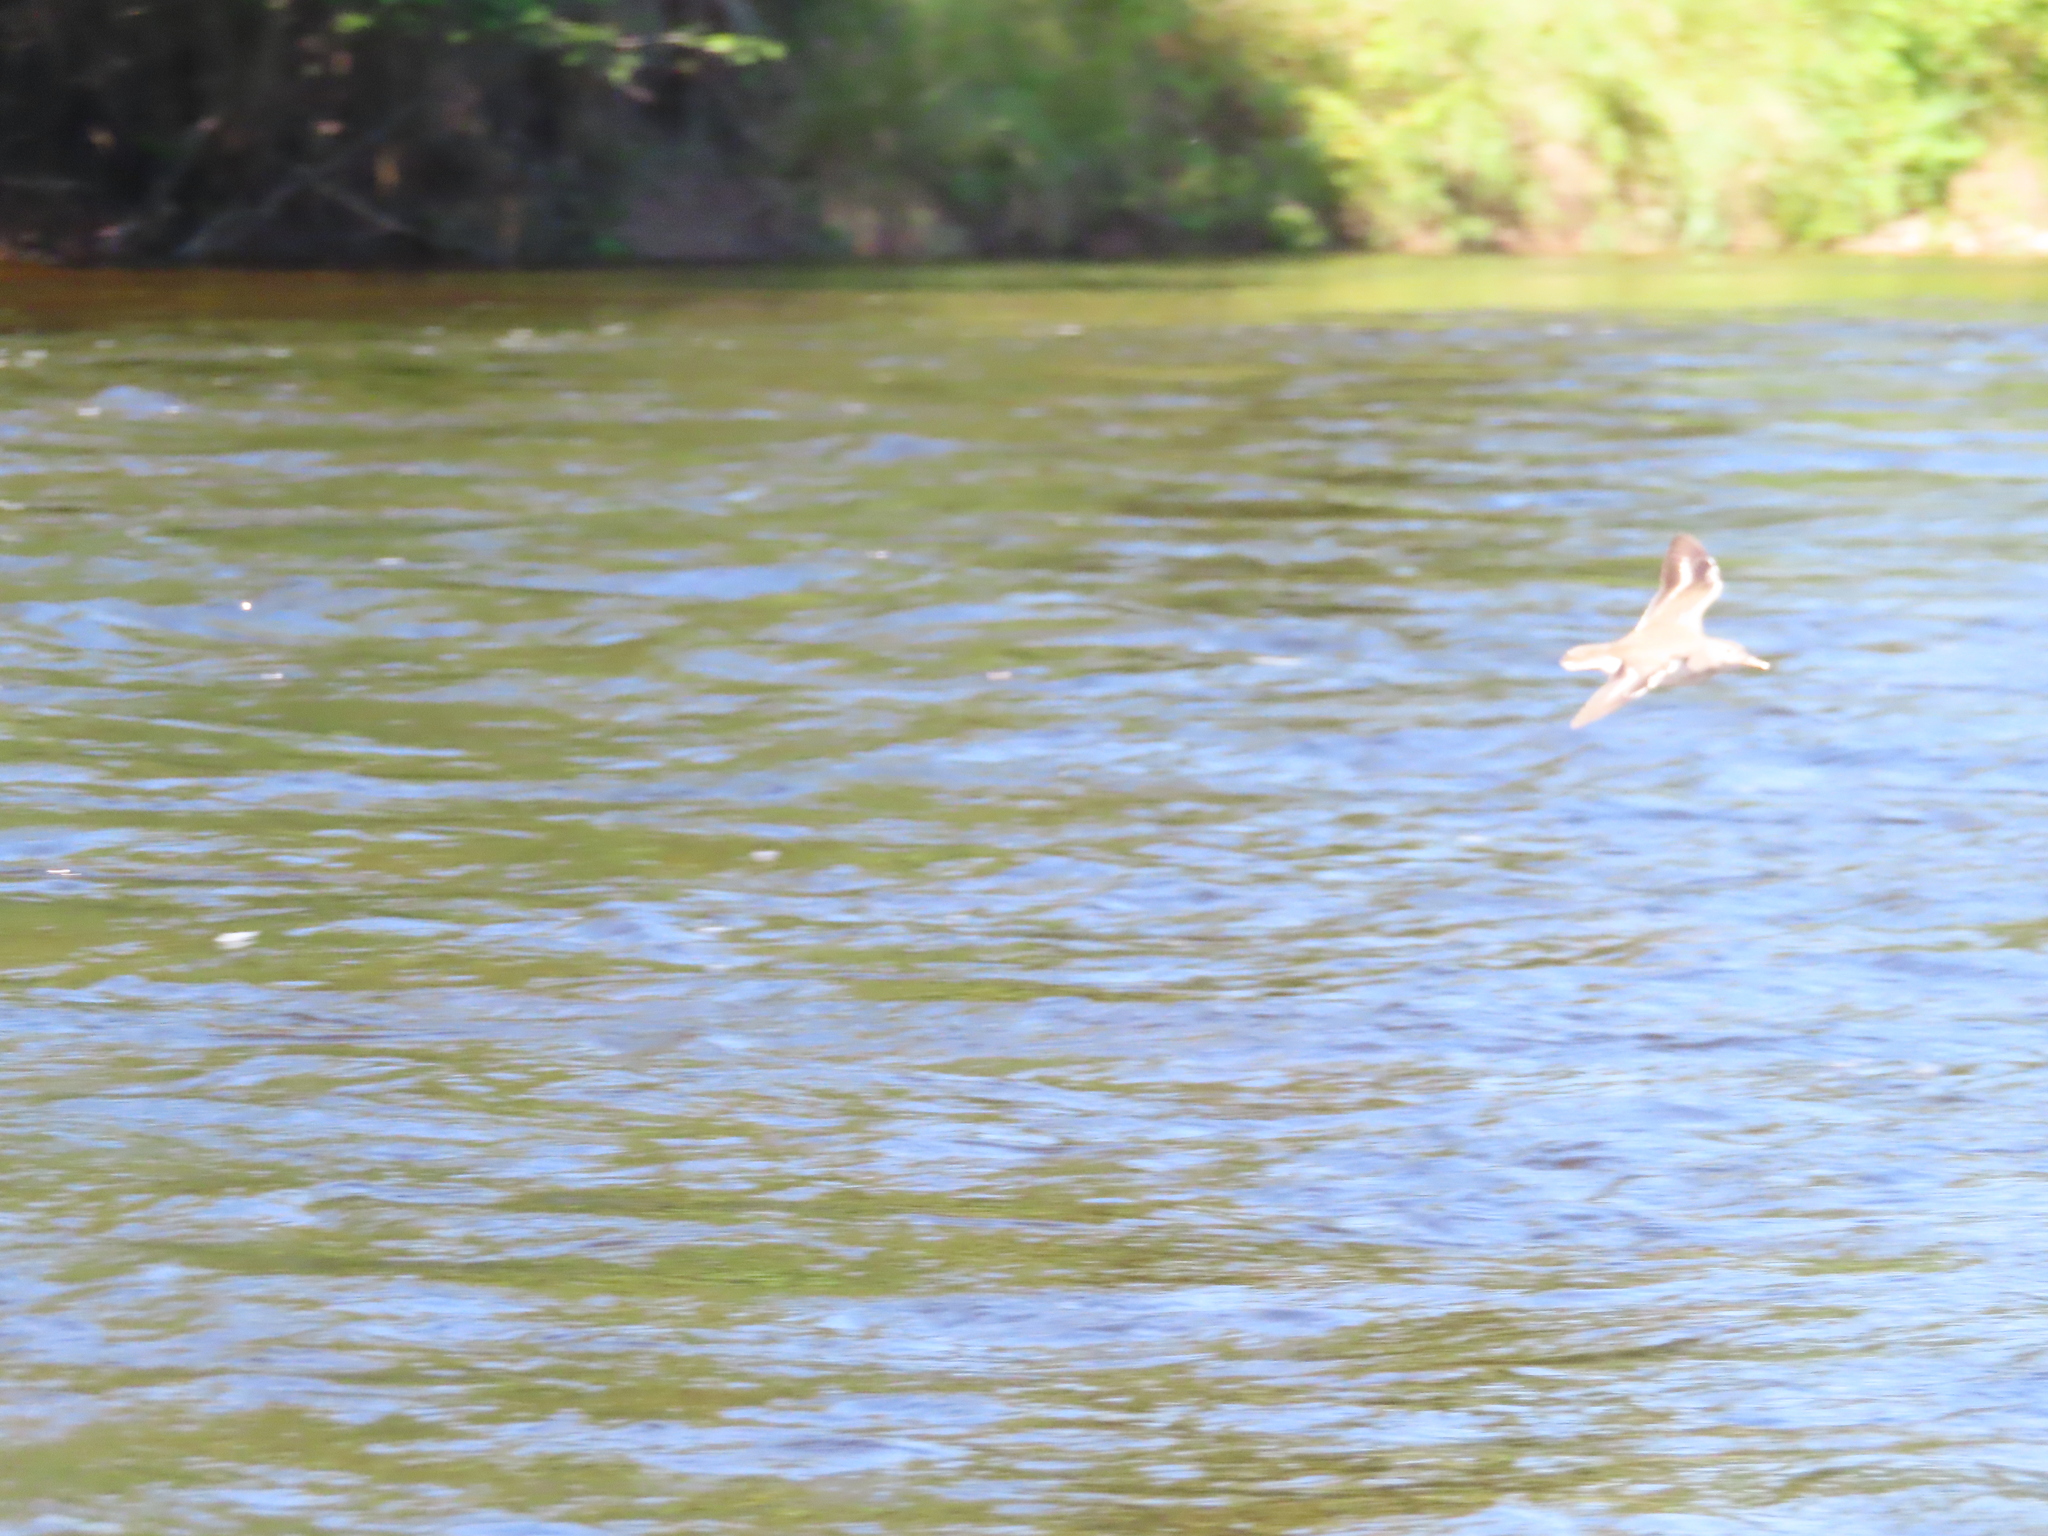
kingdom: Animalia
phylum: Chordata
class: Aves
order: Charadriiformes
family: Scolopacidae
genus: Actitis
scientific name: Actitis macularius
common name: Spotted sandpiper
